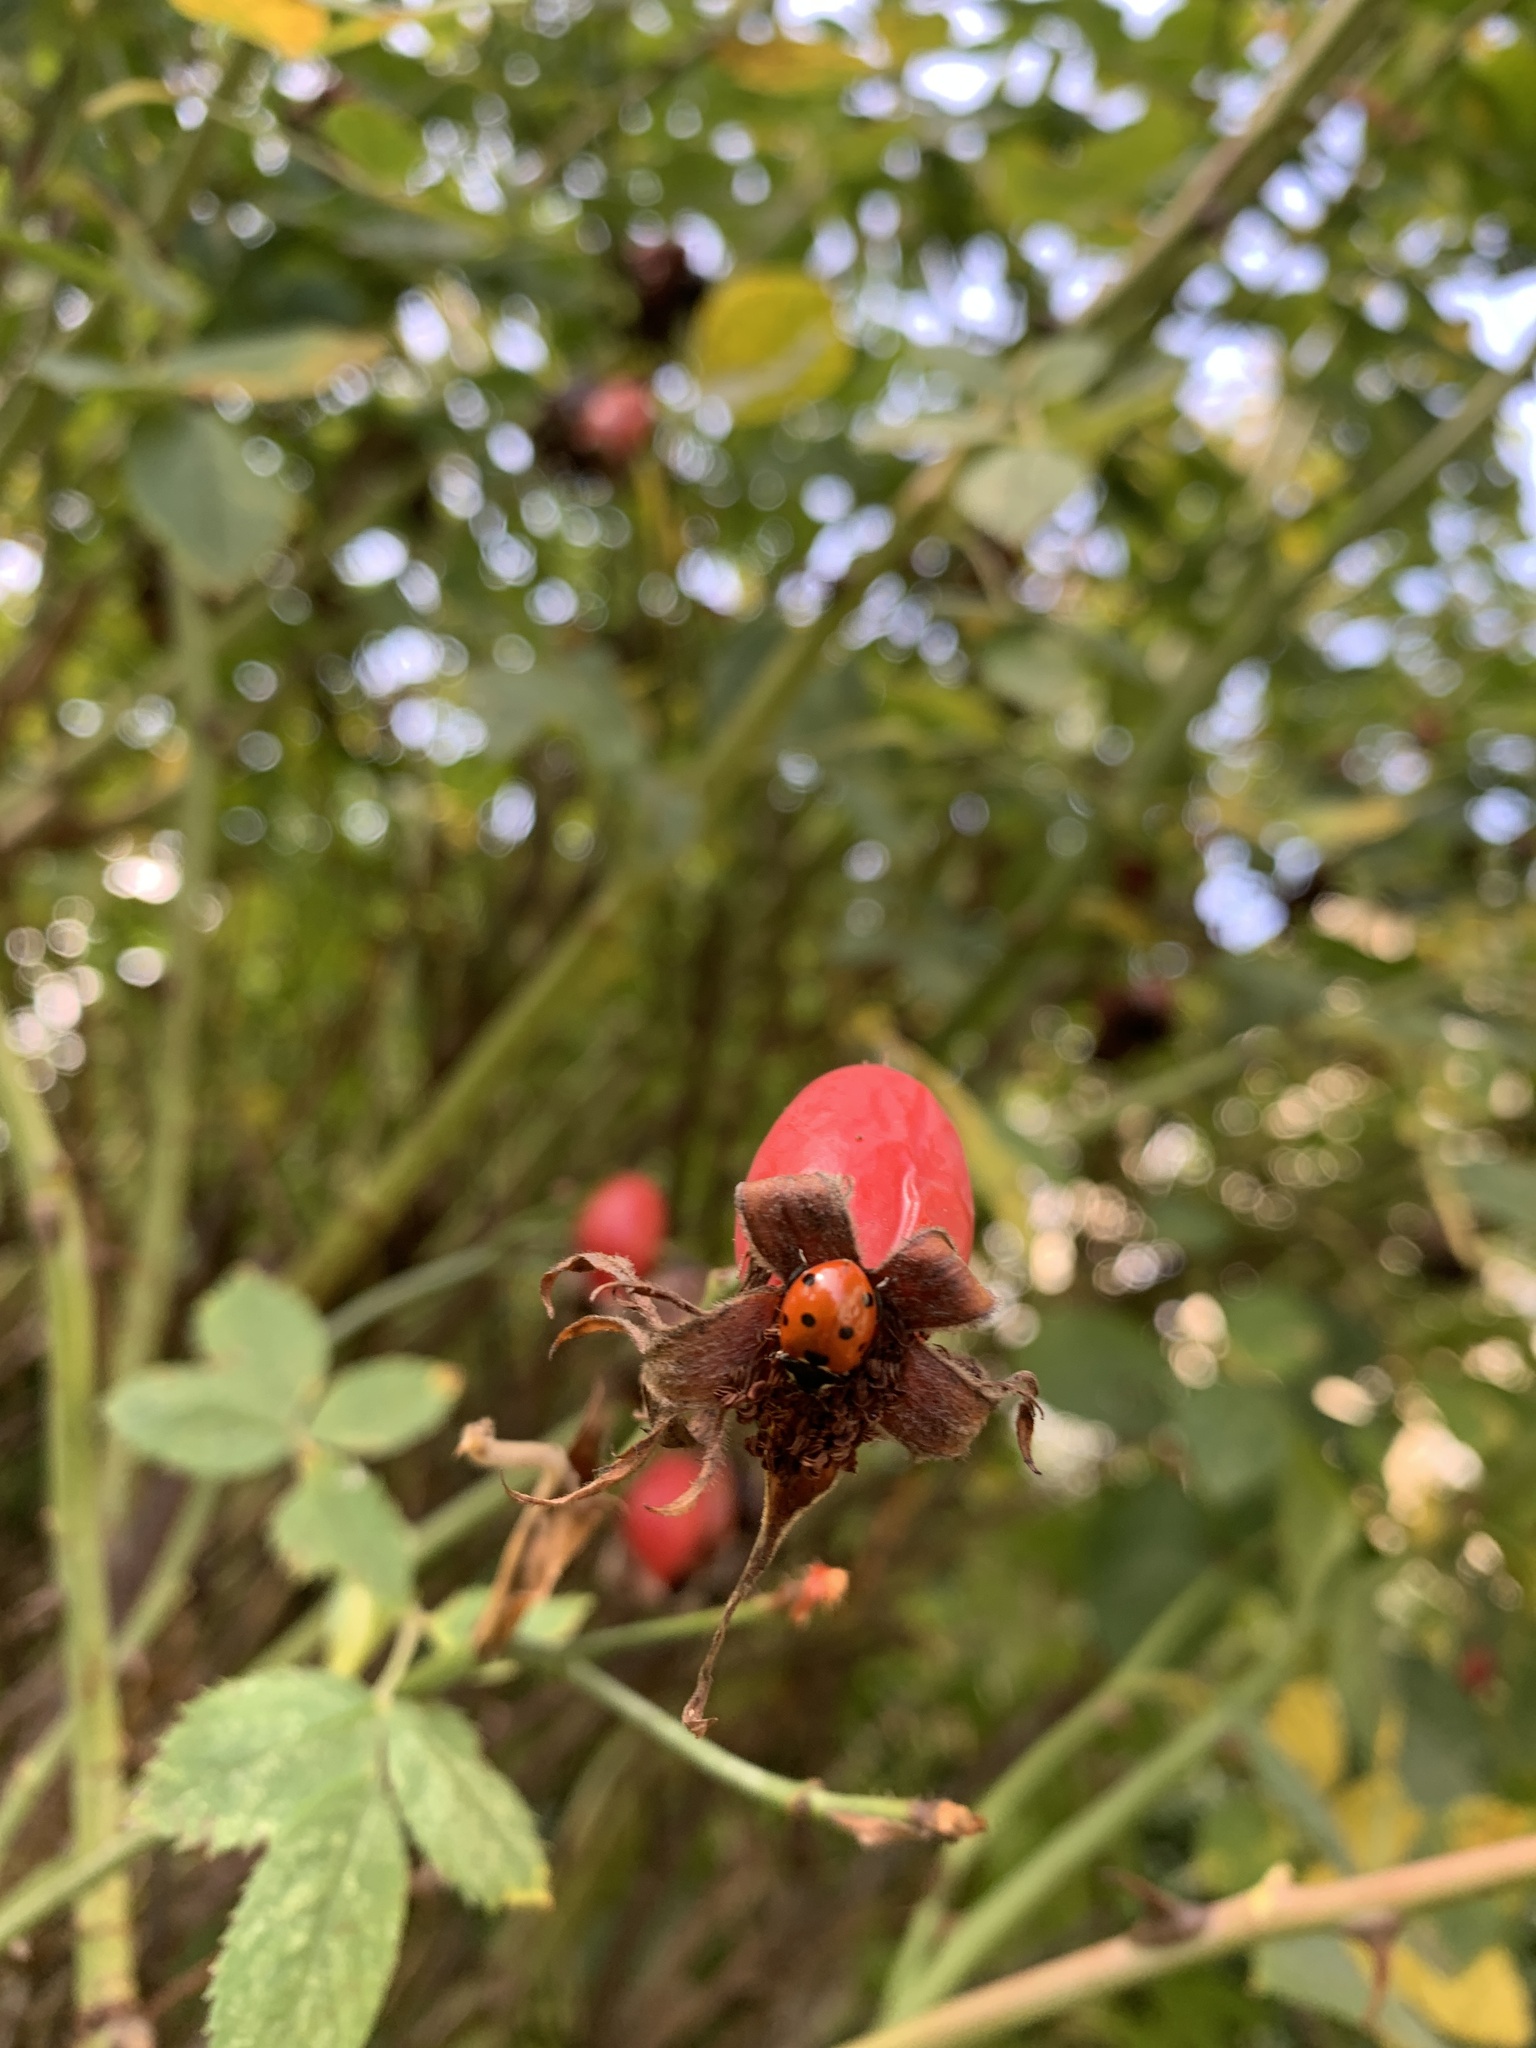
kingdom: Animalia
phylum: Arthropoda
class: Insecta
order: Coleoptera
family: Coccinellidae
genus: Coccinella
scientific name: Coccinella septempunctata
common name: Sevenspotted lady beetle
